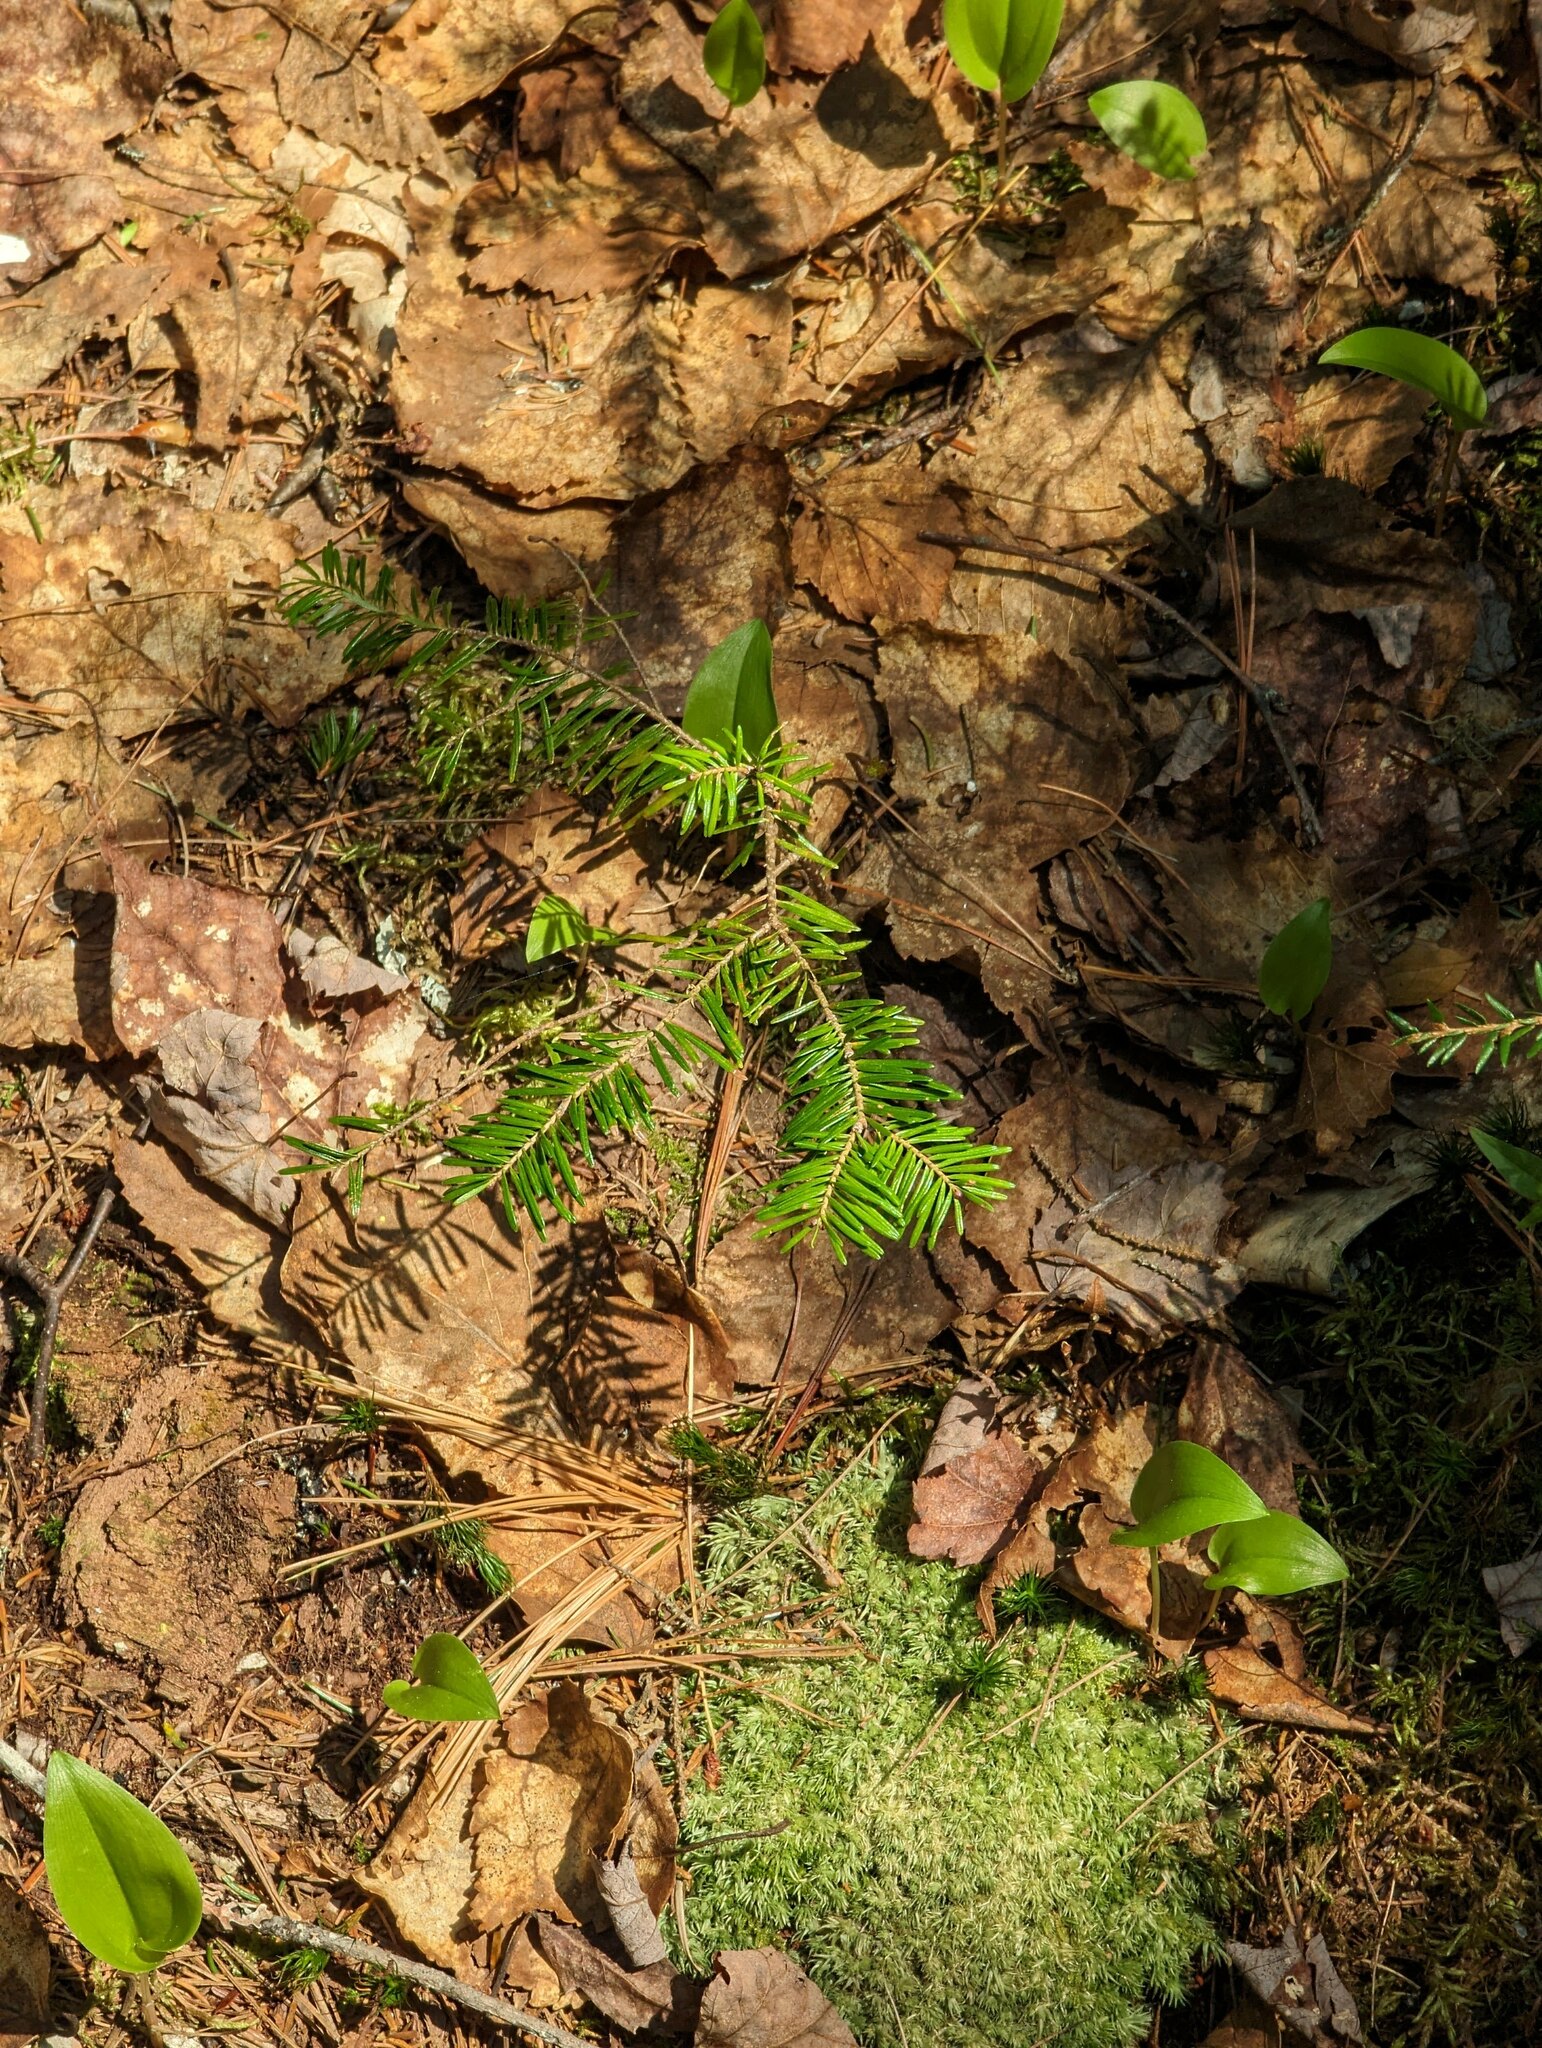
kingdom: Plantae
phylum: Tracheophyta
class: Pinopsida
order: Pinales
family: Pinaceae
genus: Abies
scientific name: Abies balsamea
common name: Balsam fir
